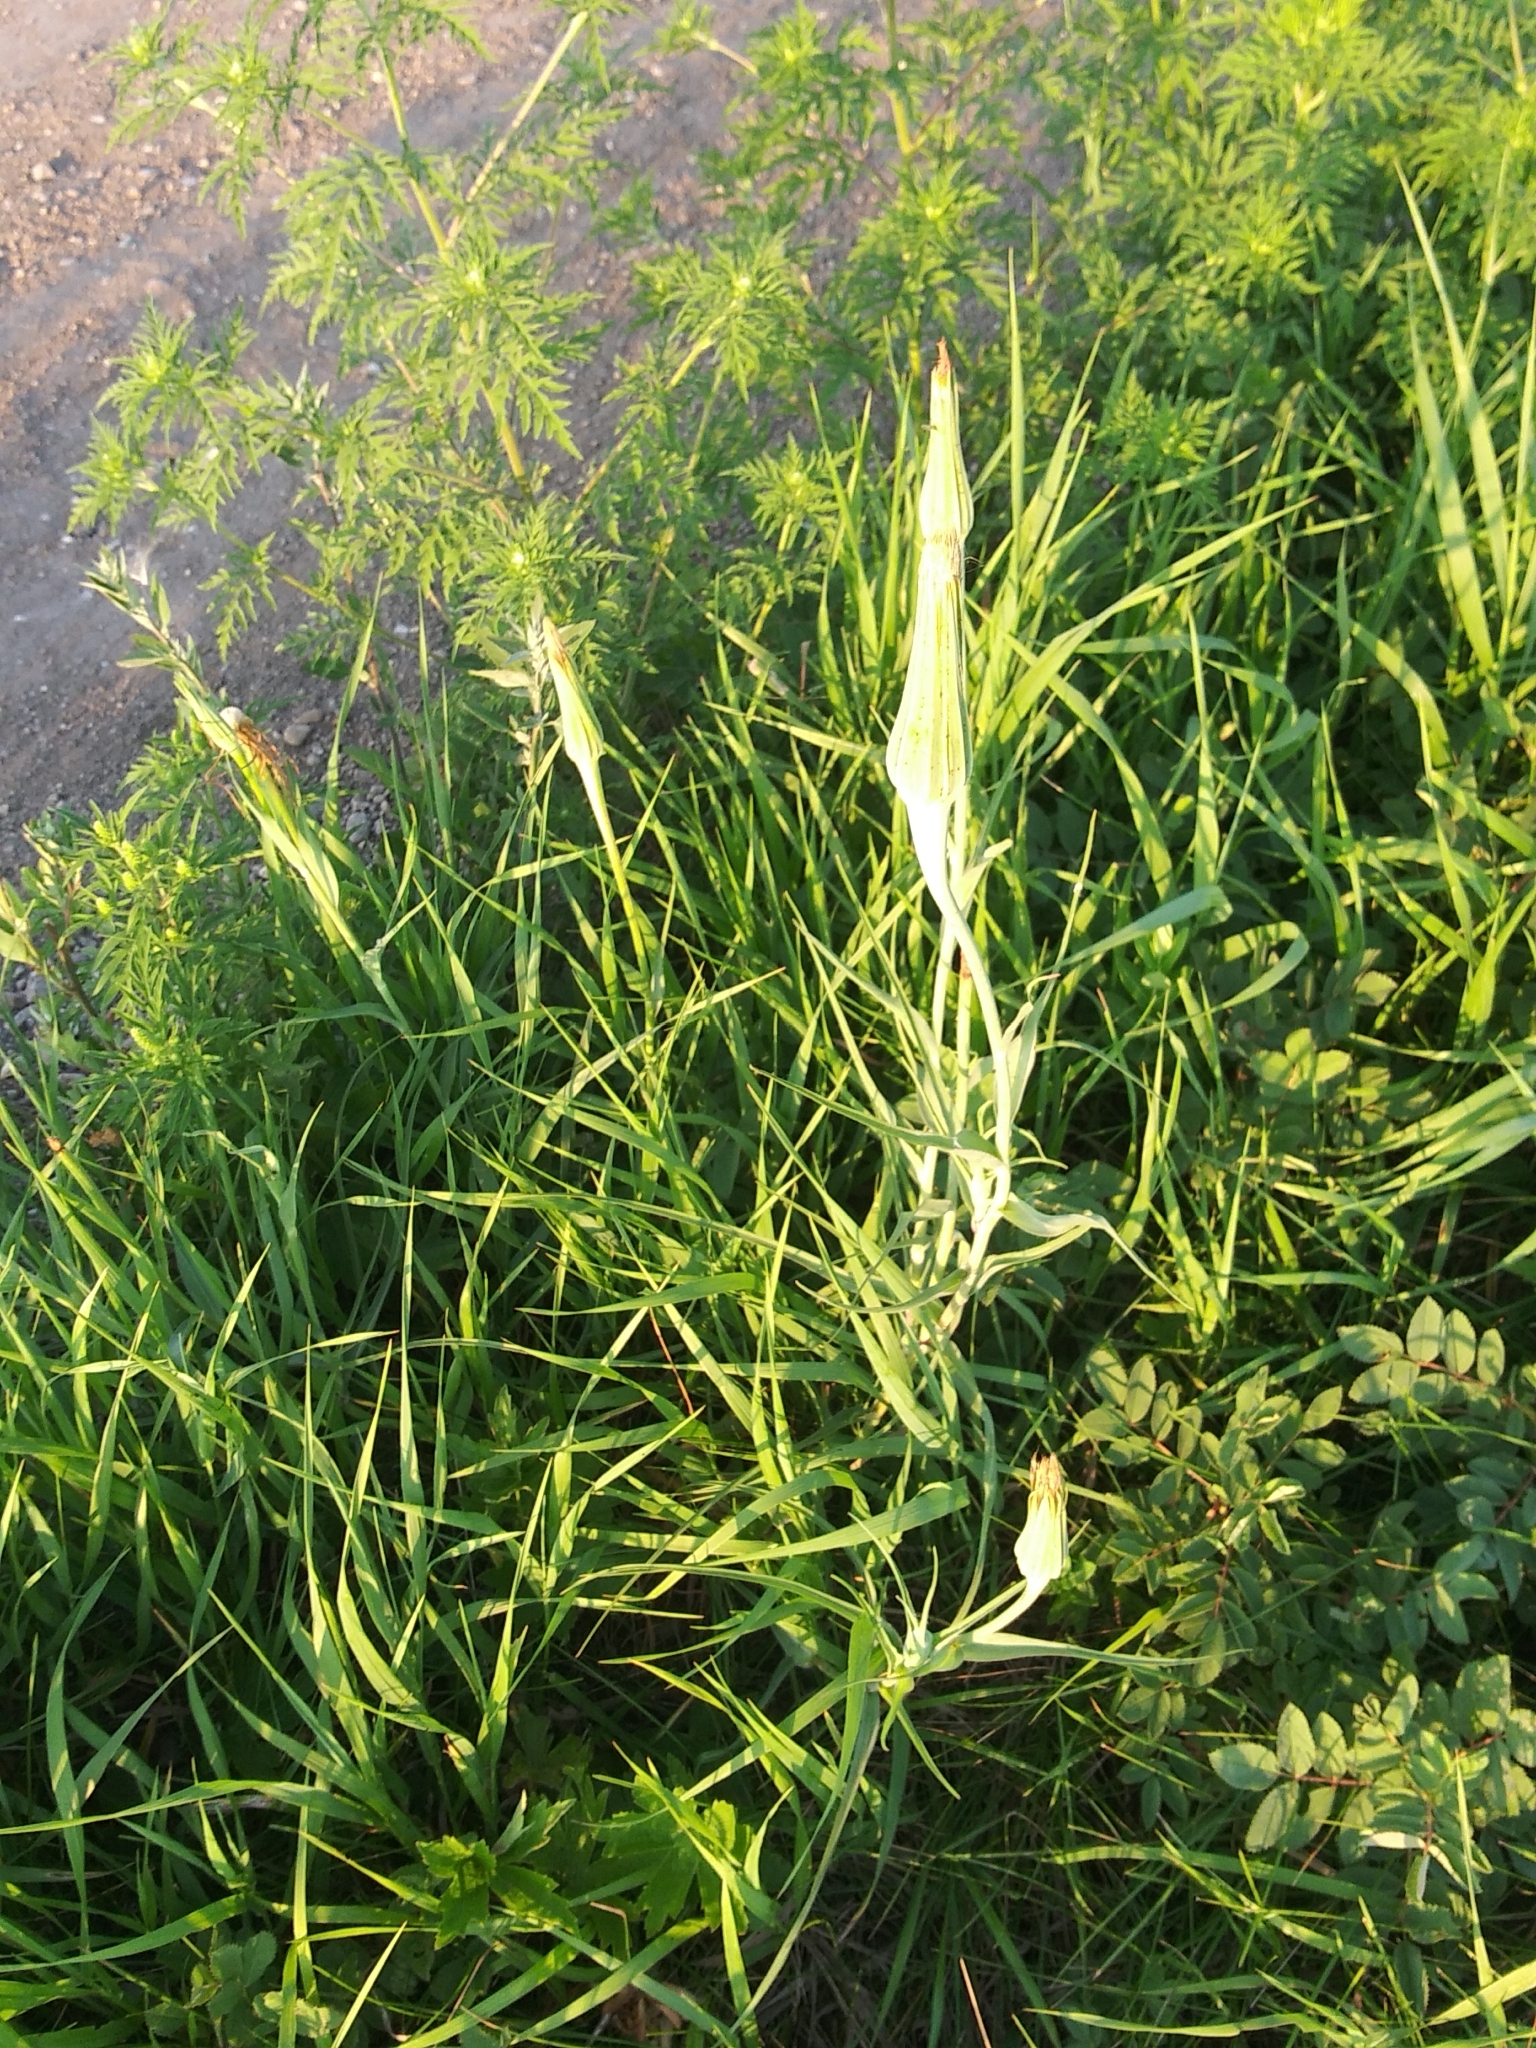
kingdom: Plantae
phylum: Tracheophyta
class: Magnoliopsida
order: Asterales
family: Asteraceae
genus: Tragopogon
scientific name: Tragopogon dubius
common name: Yellow salsify
